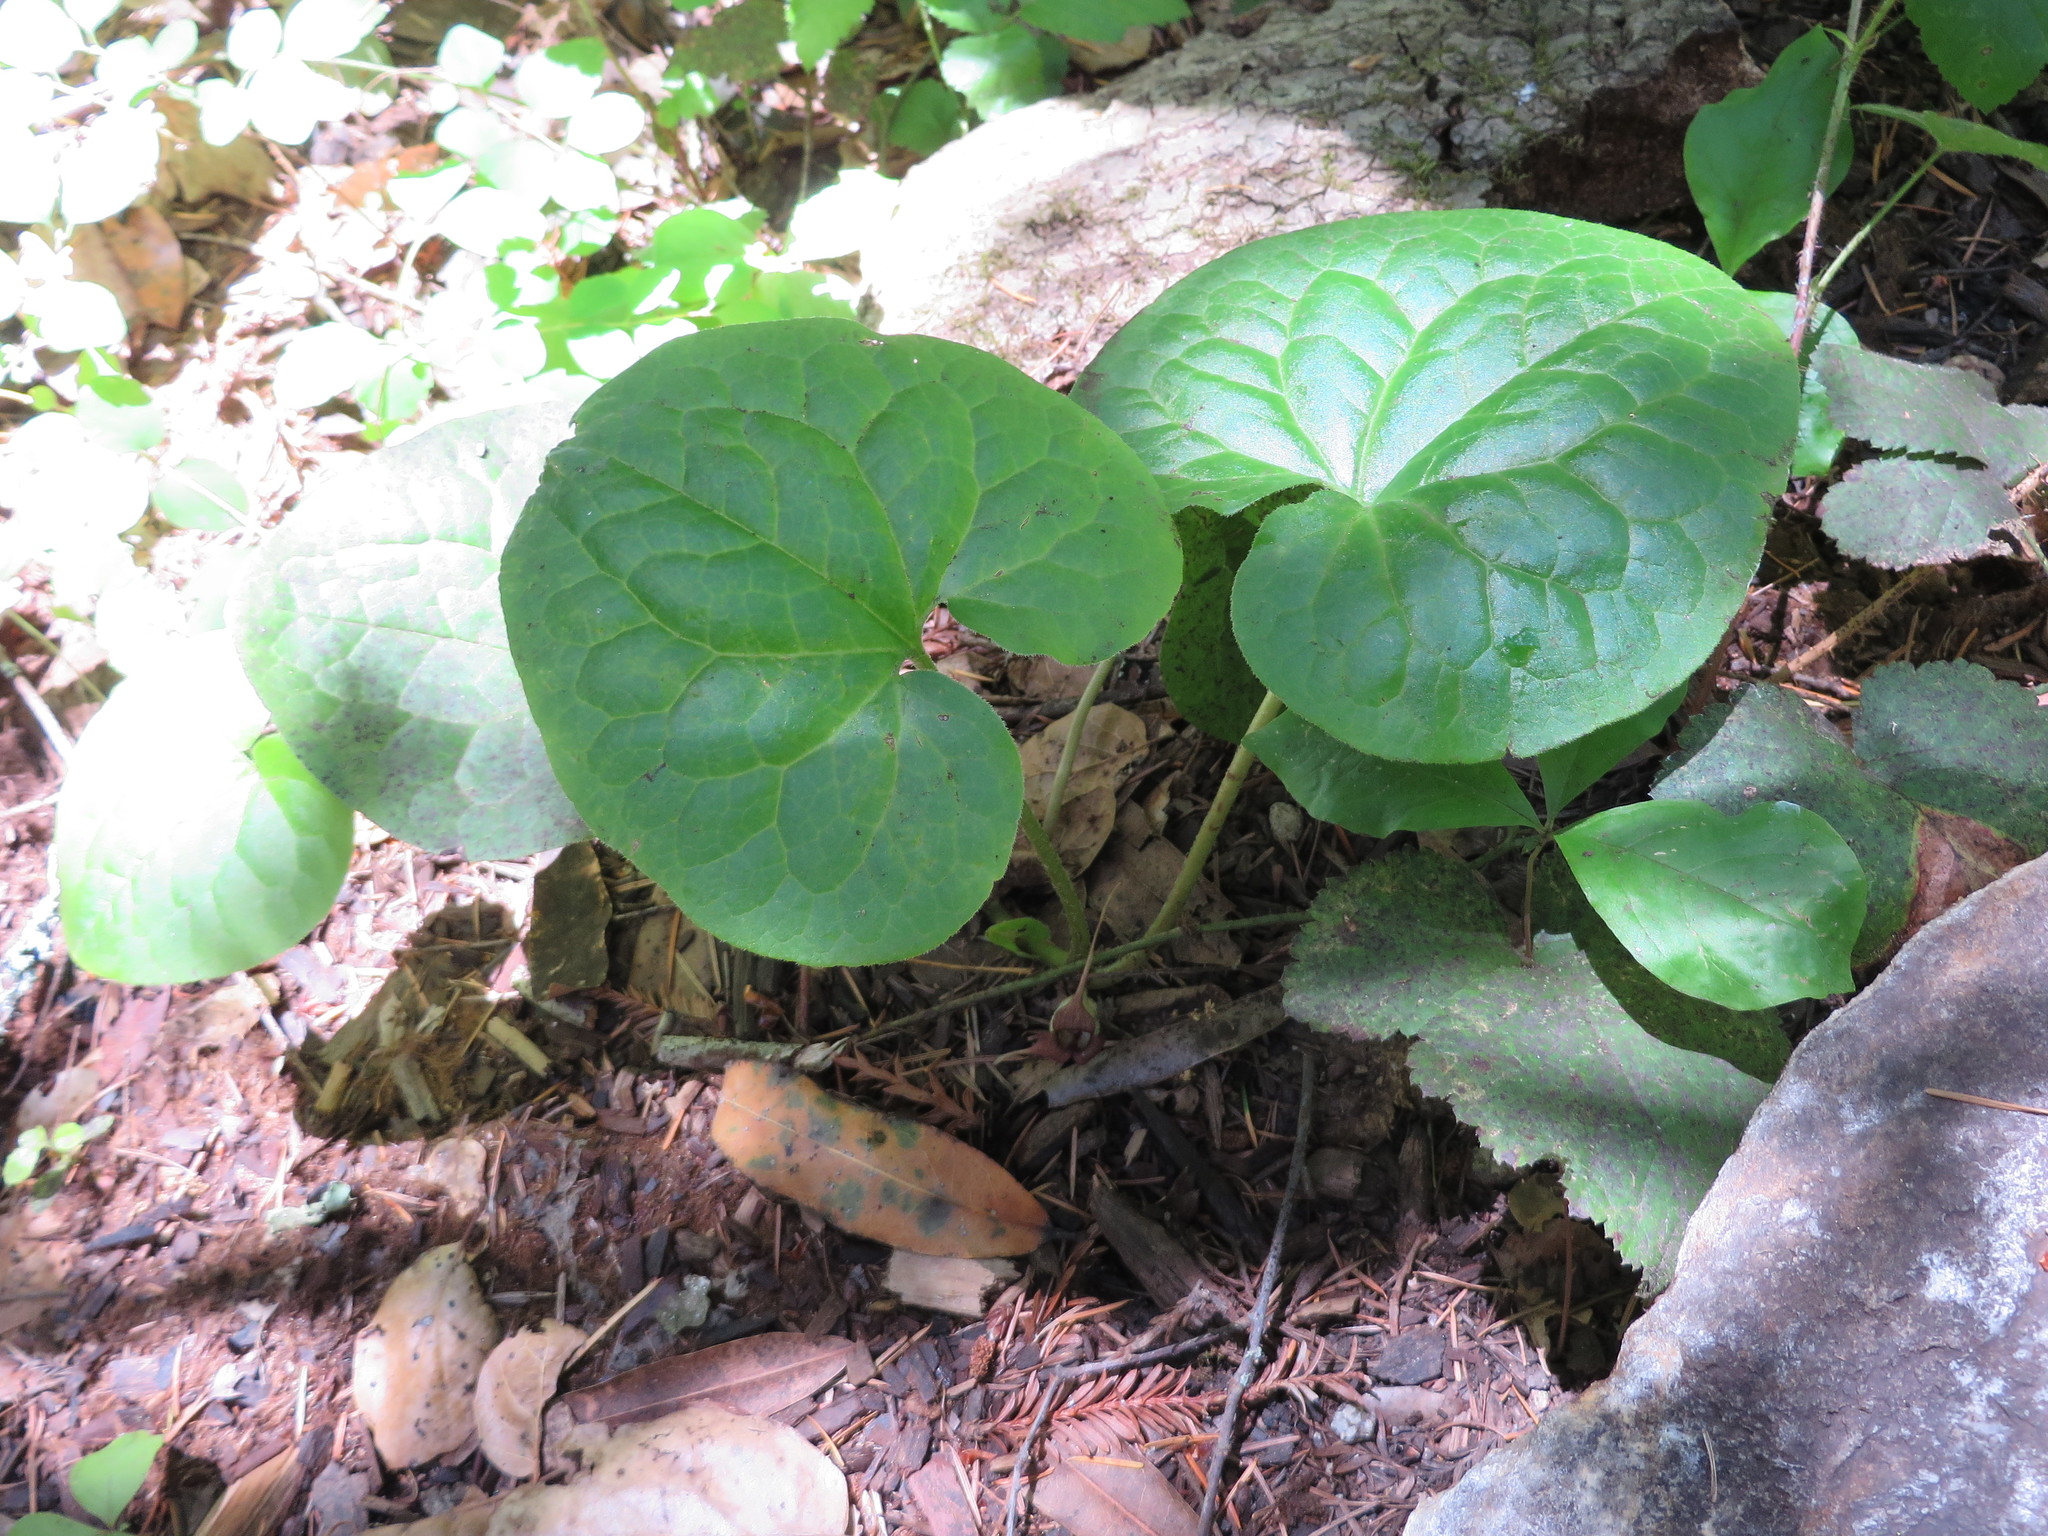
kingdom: Plantae
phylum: Tracheophyta
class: Magnoliopsida
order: Piperales
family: Aristolochiaceae
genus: Asarum
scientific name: Asarum caudatum
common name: Wild ginger
